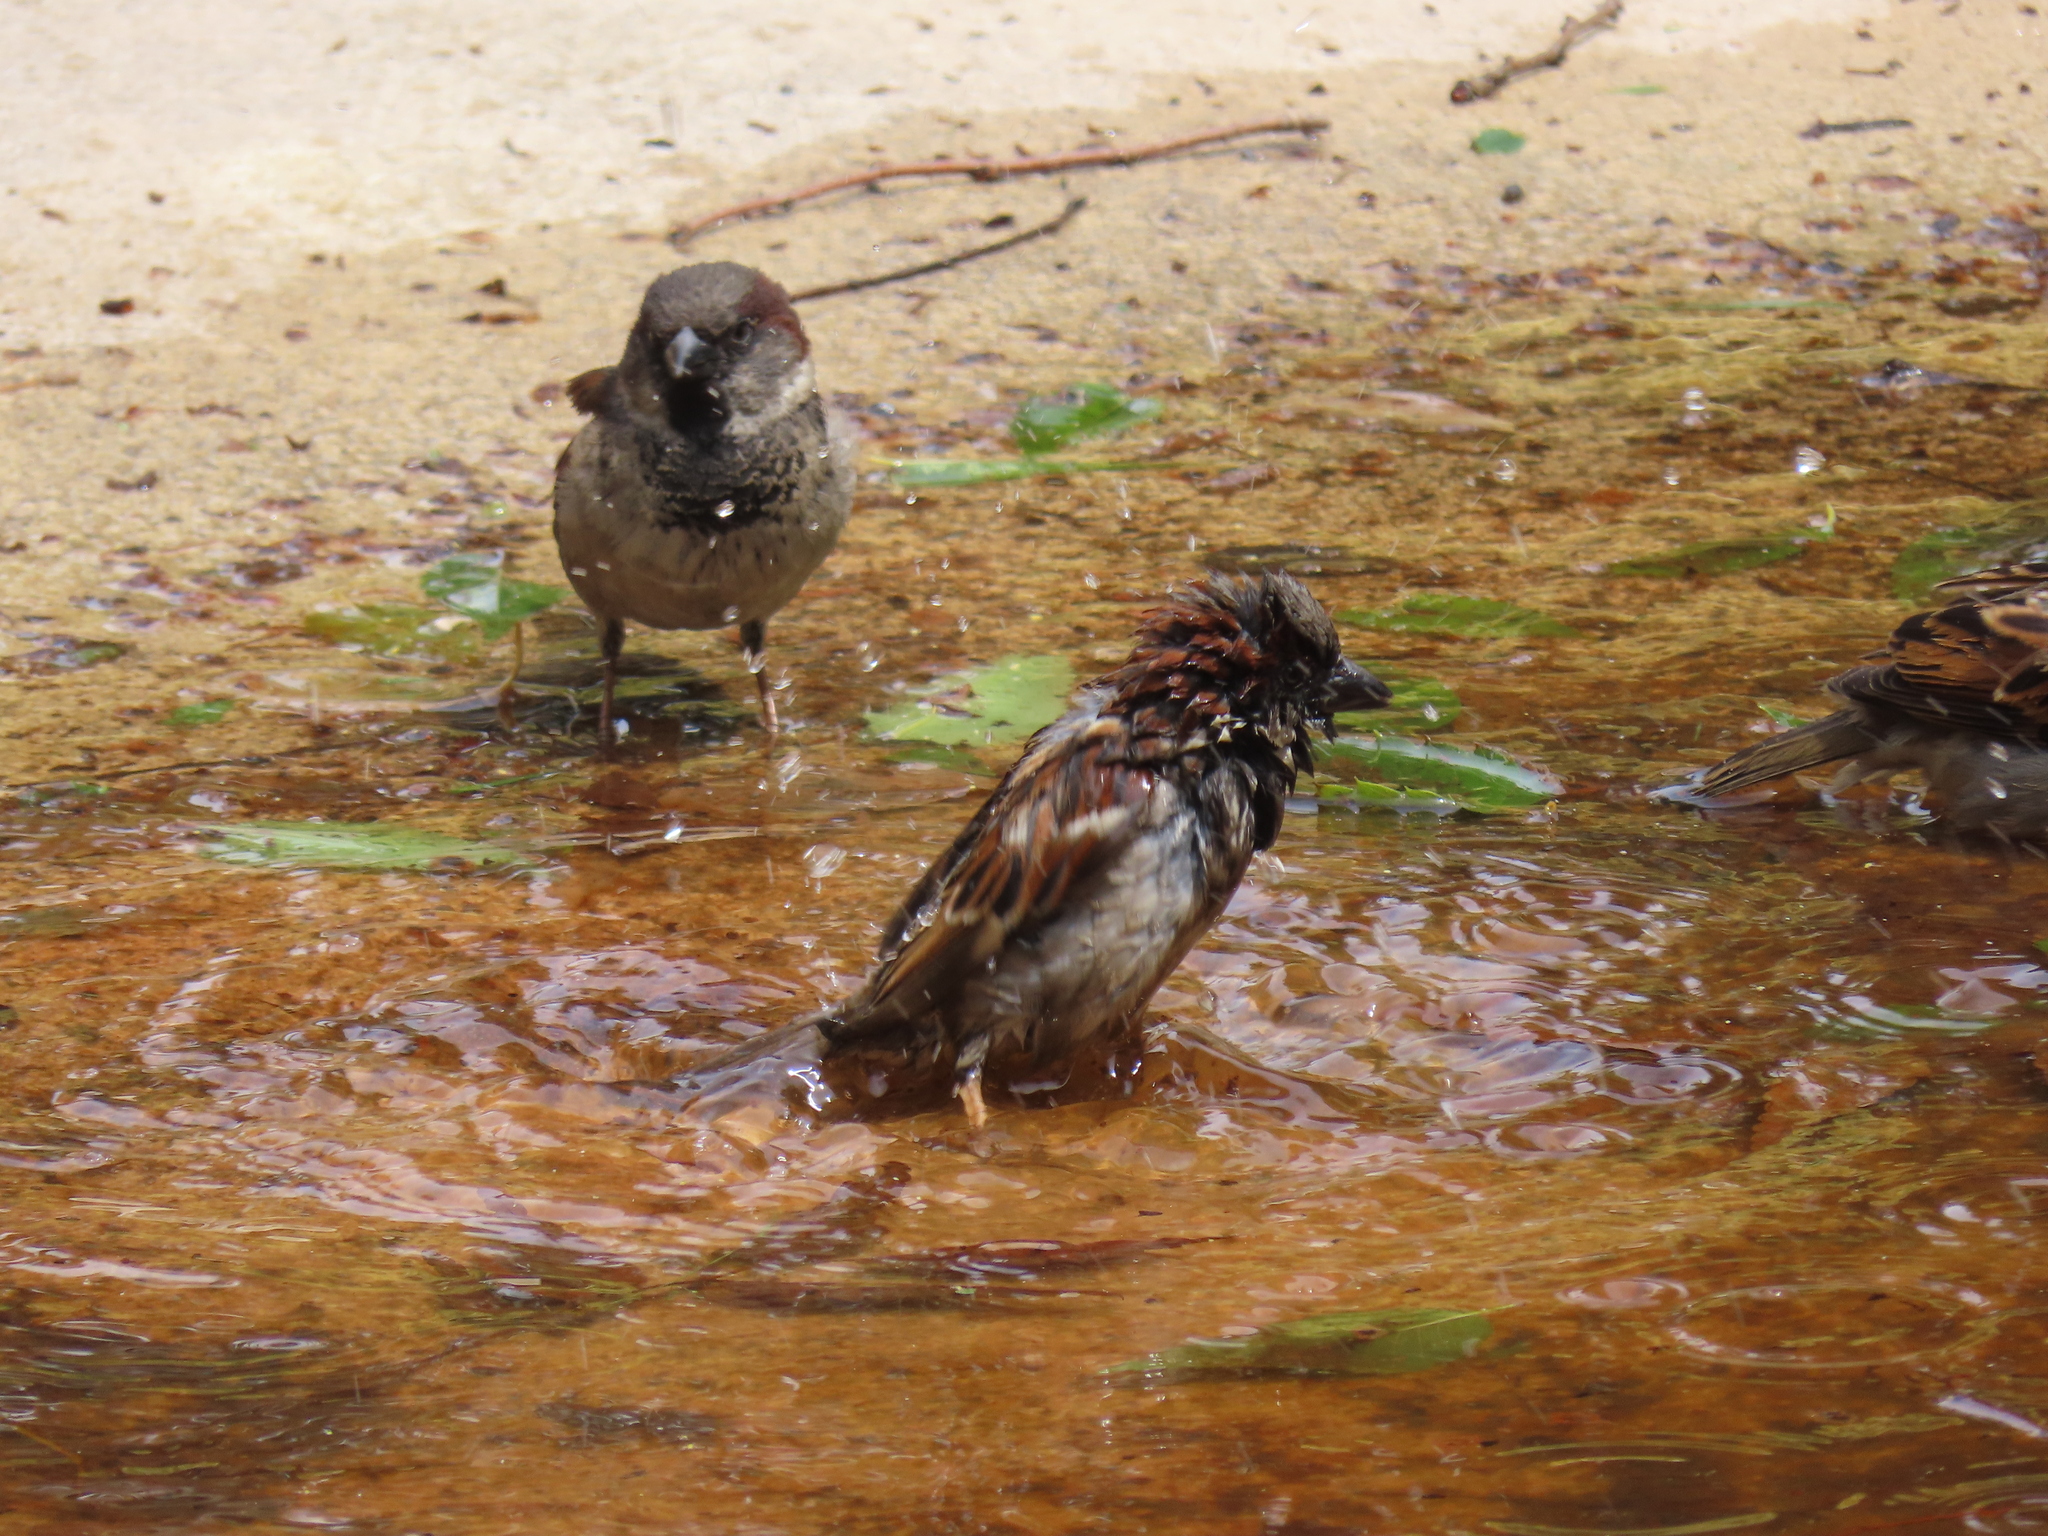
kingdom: Animalia
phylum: Chordata
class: Aves
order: Passeriformes
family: Passeridae
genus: Passer
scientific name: Passer domesticus
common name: House sparrow
